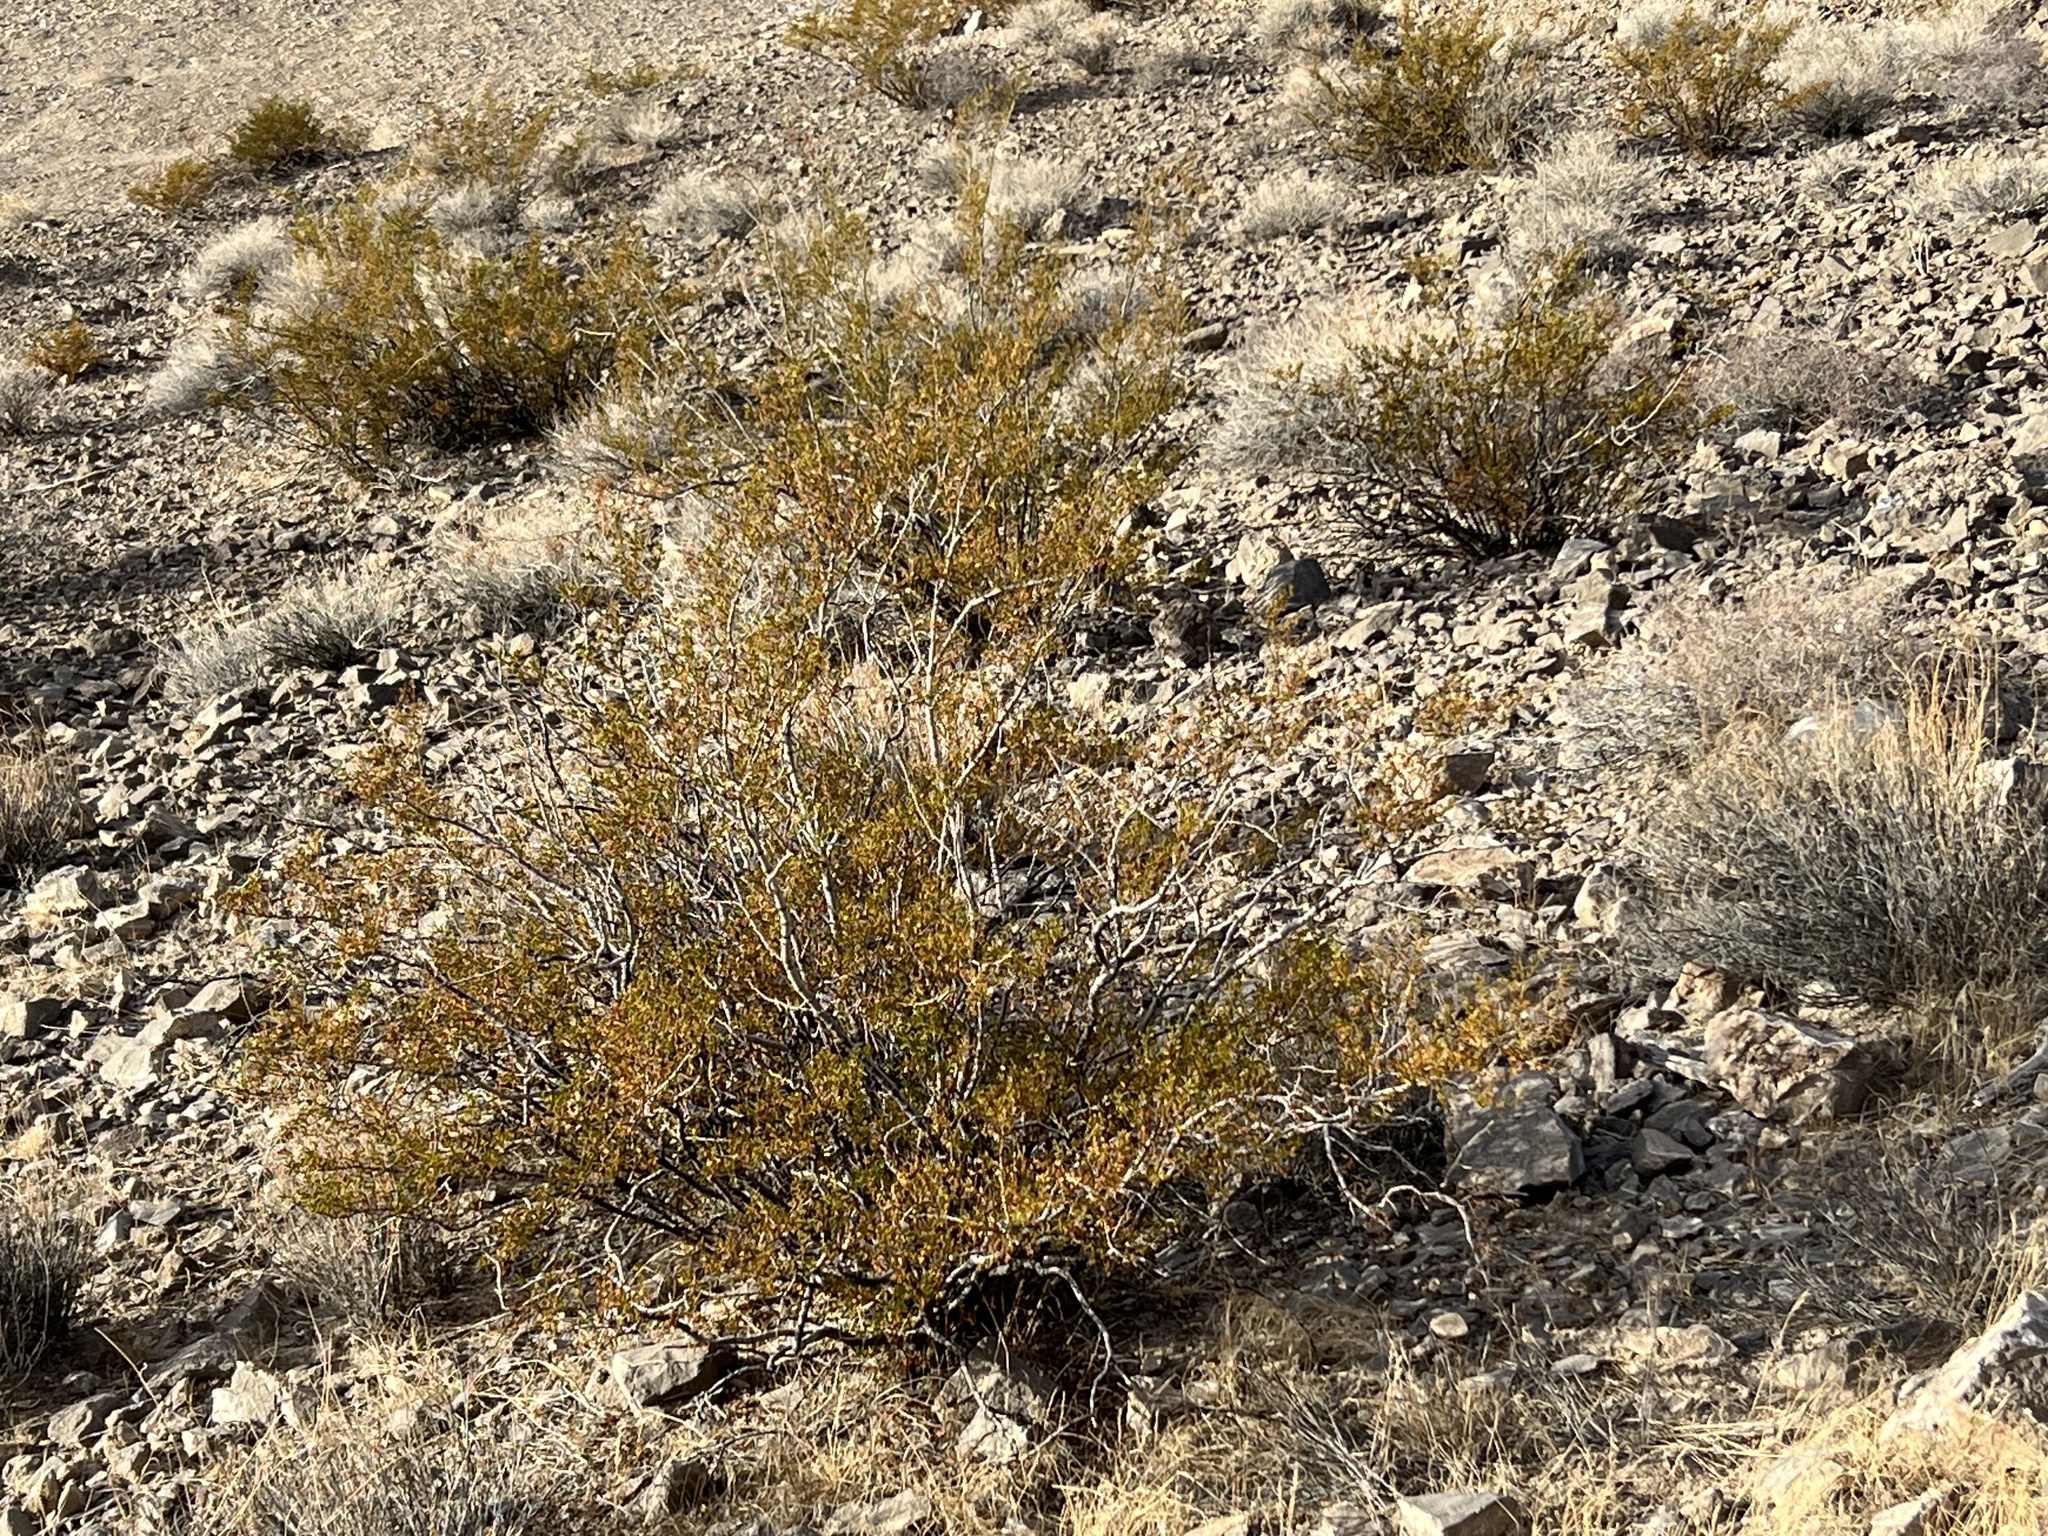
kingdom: Plantae
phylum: Tracheophyta
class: Magnoliopsida
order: Zygophyllales
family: Zygophyllaceae
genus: Larrea
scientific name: Larrea tridentata
